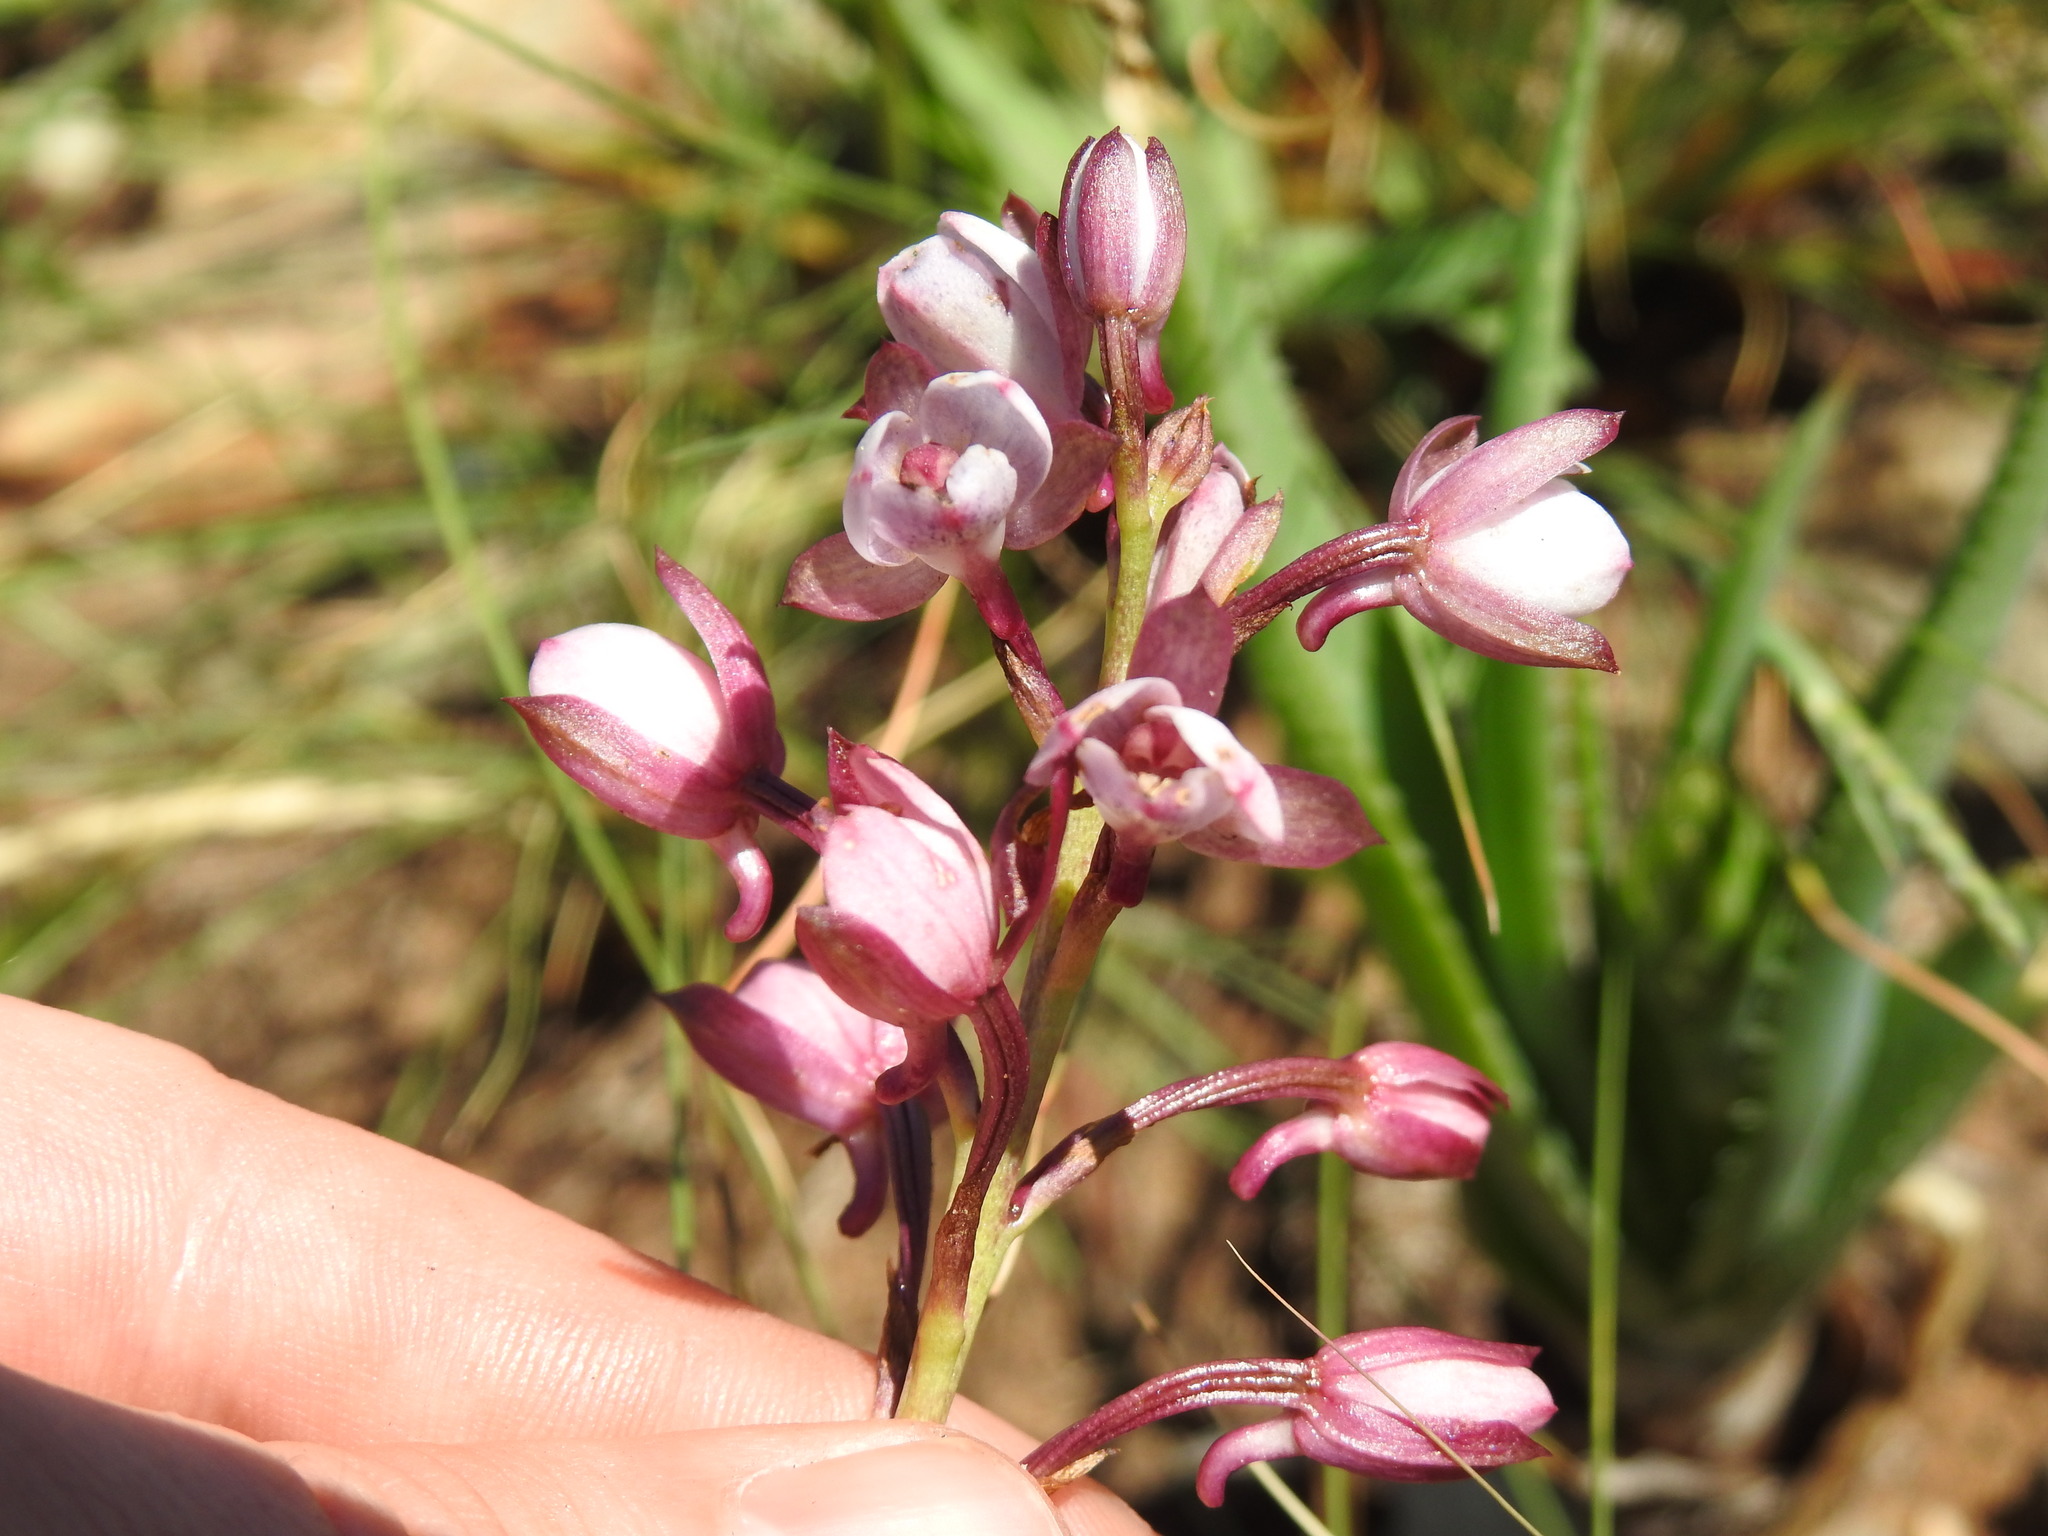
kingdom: Plantae
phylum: Tracheophyta
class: Liliopsida
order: Asparagales
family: Orchidaceae
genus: Eulophia
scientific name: Eulophia hians
